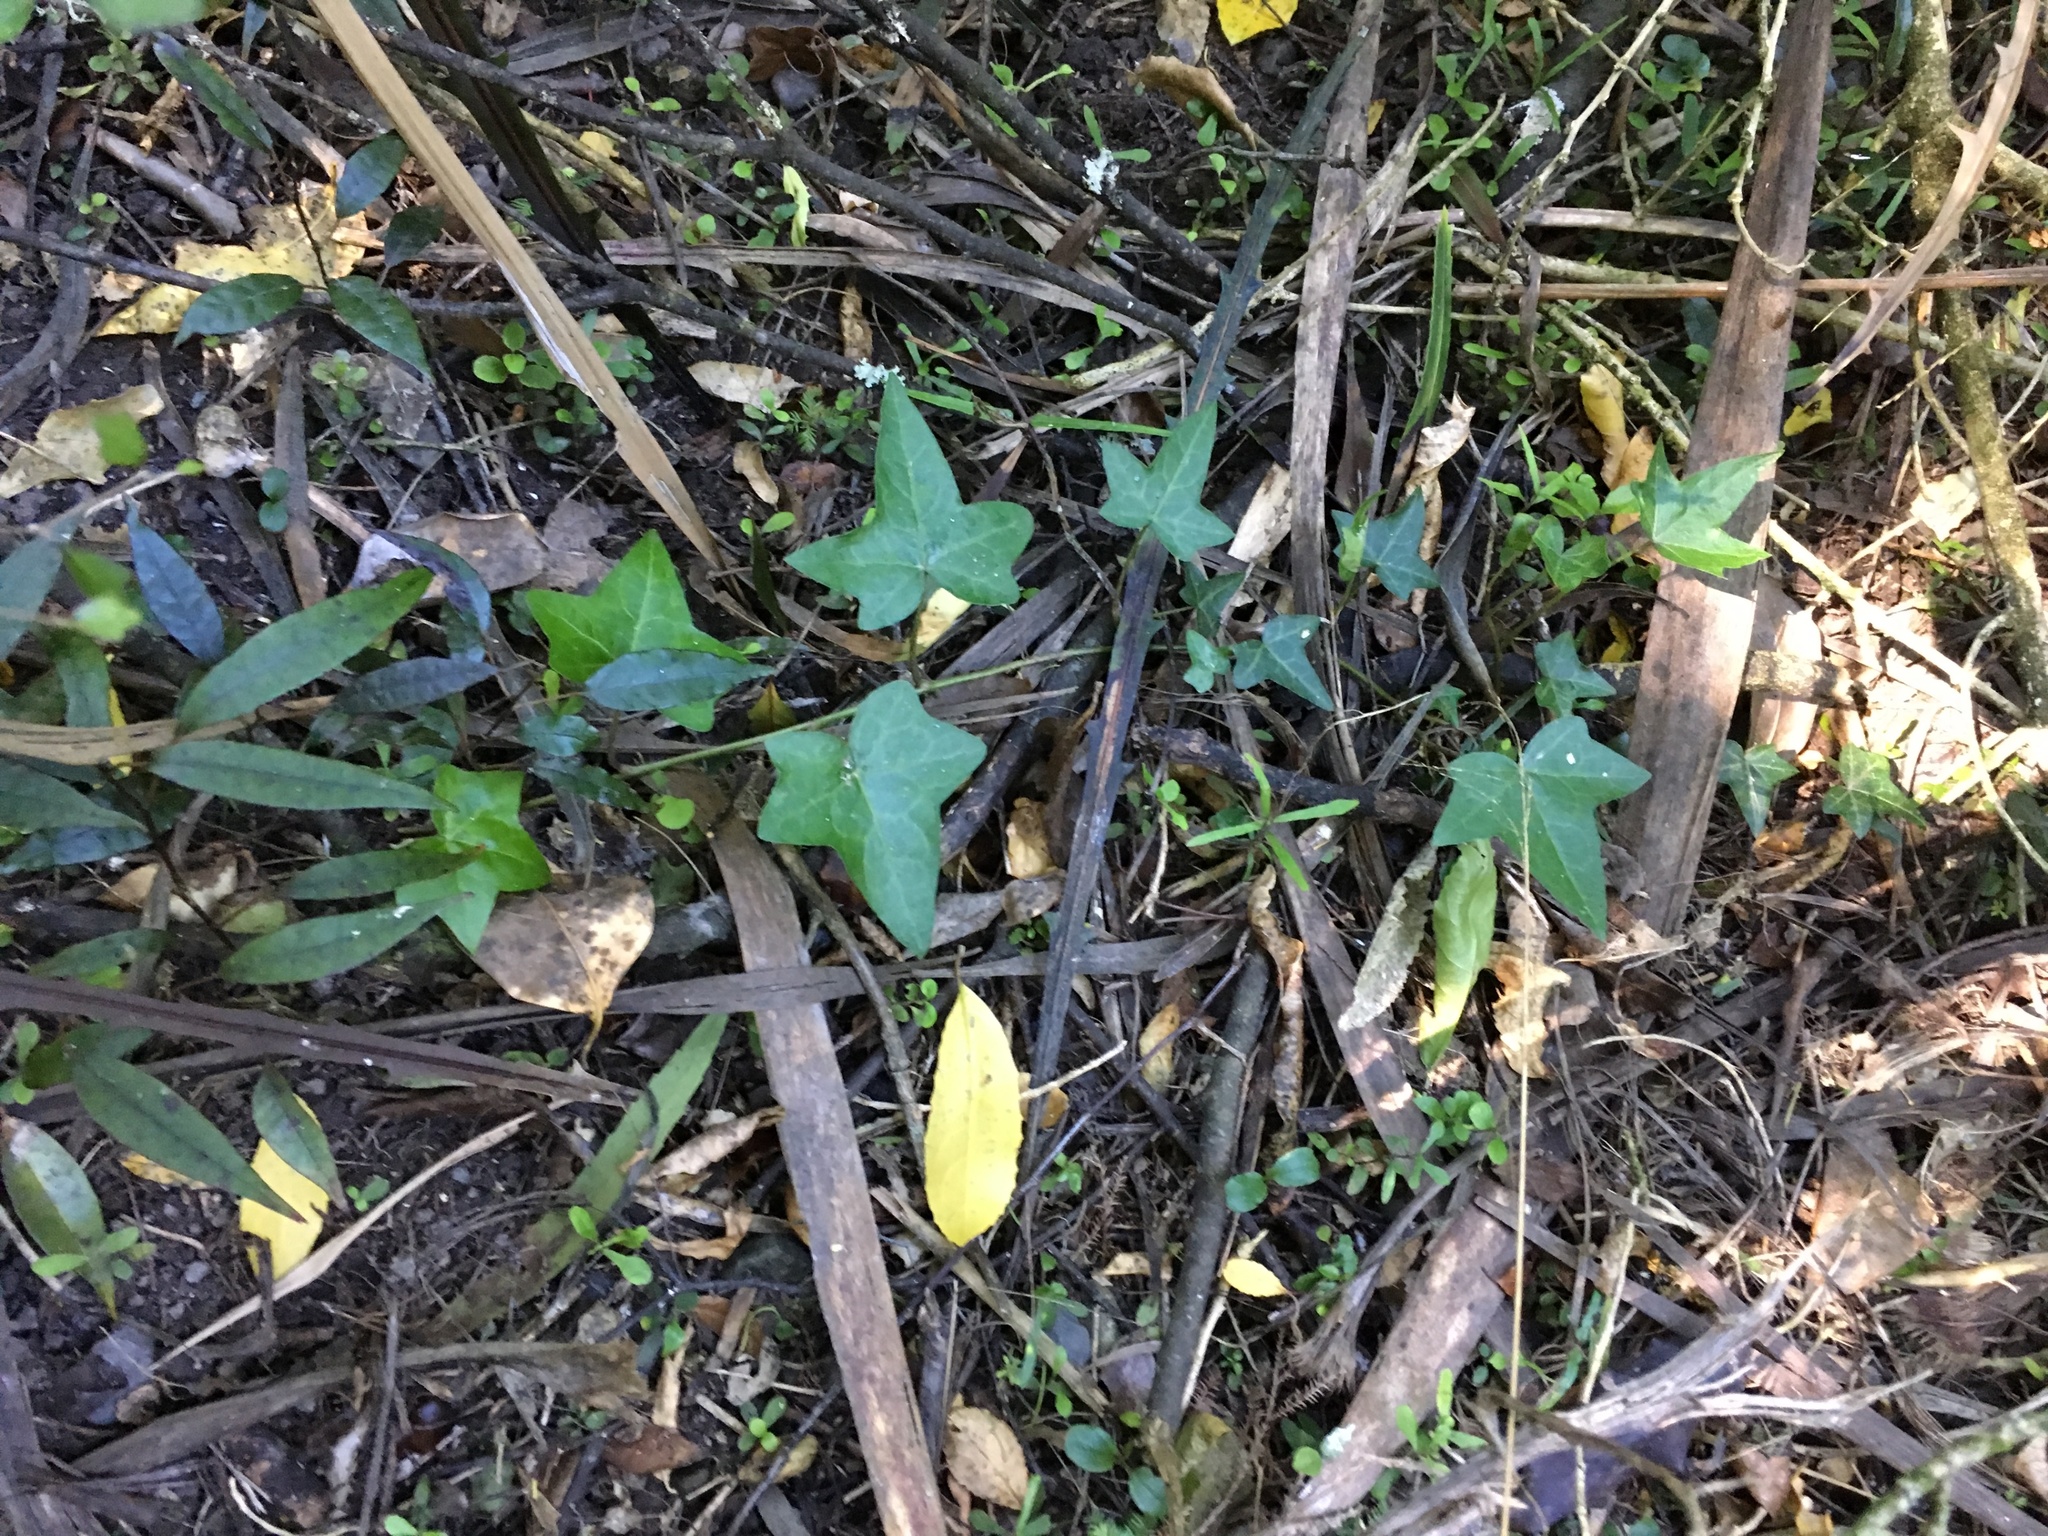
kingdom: Plantae
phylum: Tracheophyta
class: Magnoliopsida
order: Apiales
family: Araliaceae
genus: Hedera
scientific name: Hedera helix
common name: Ivy
